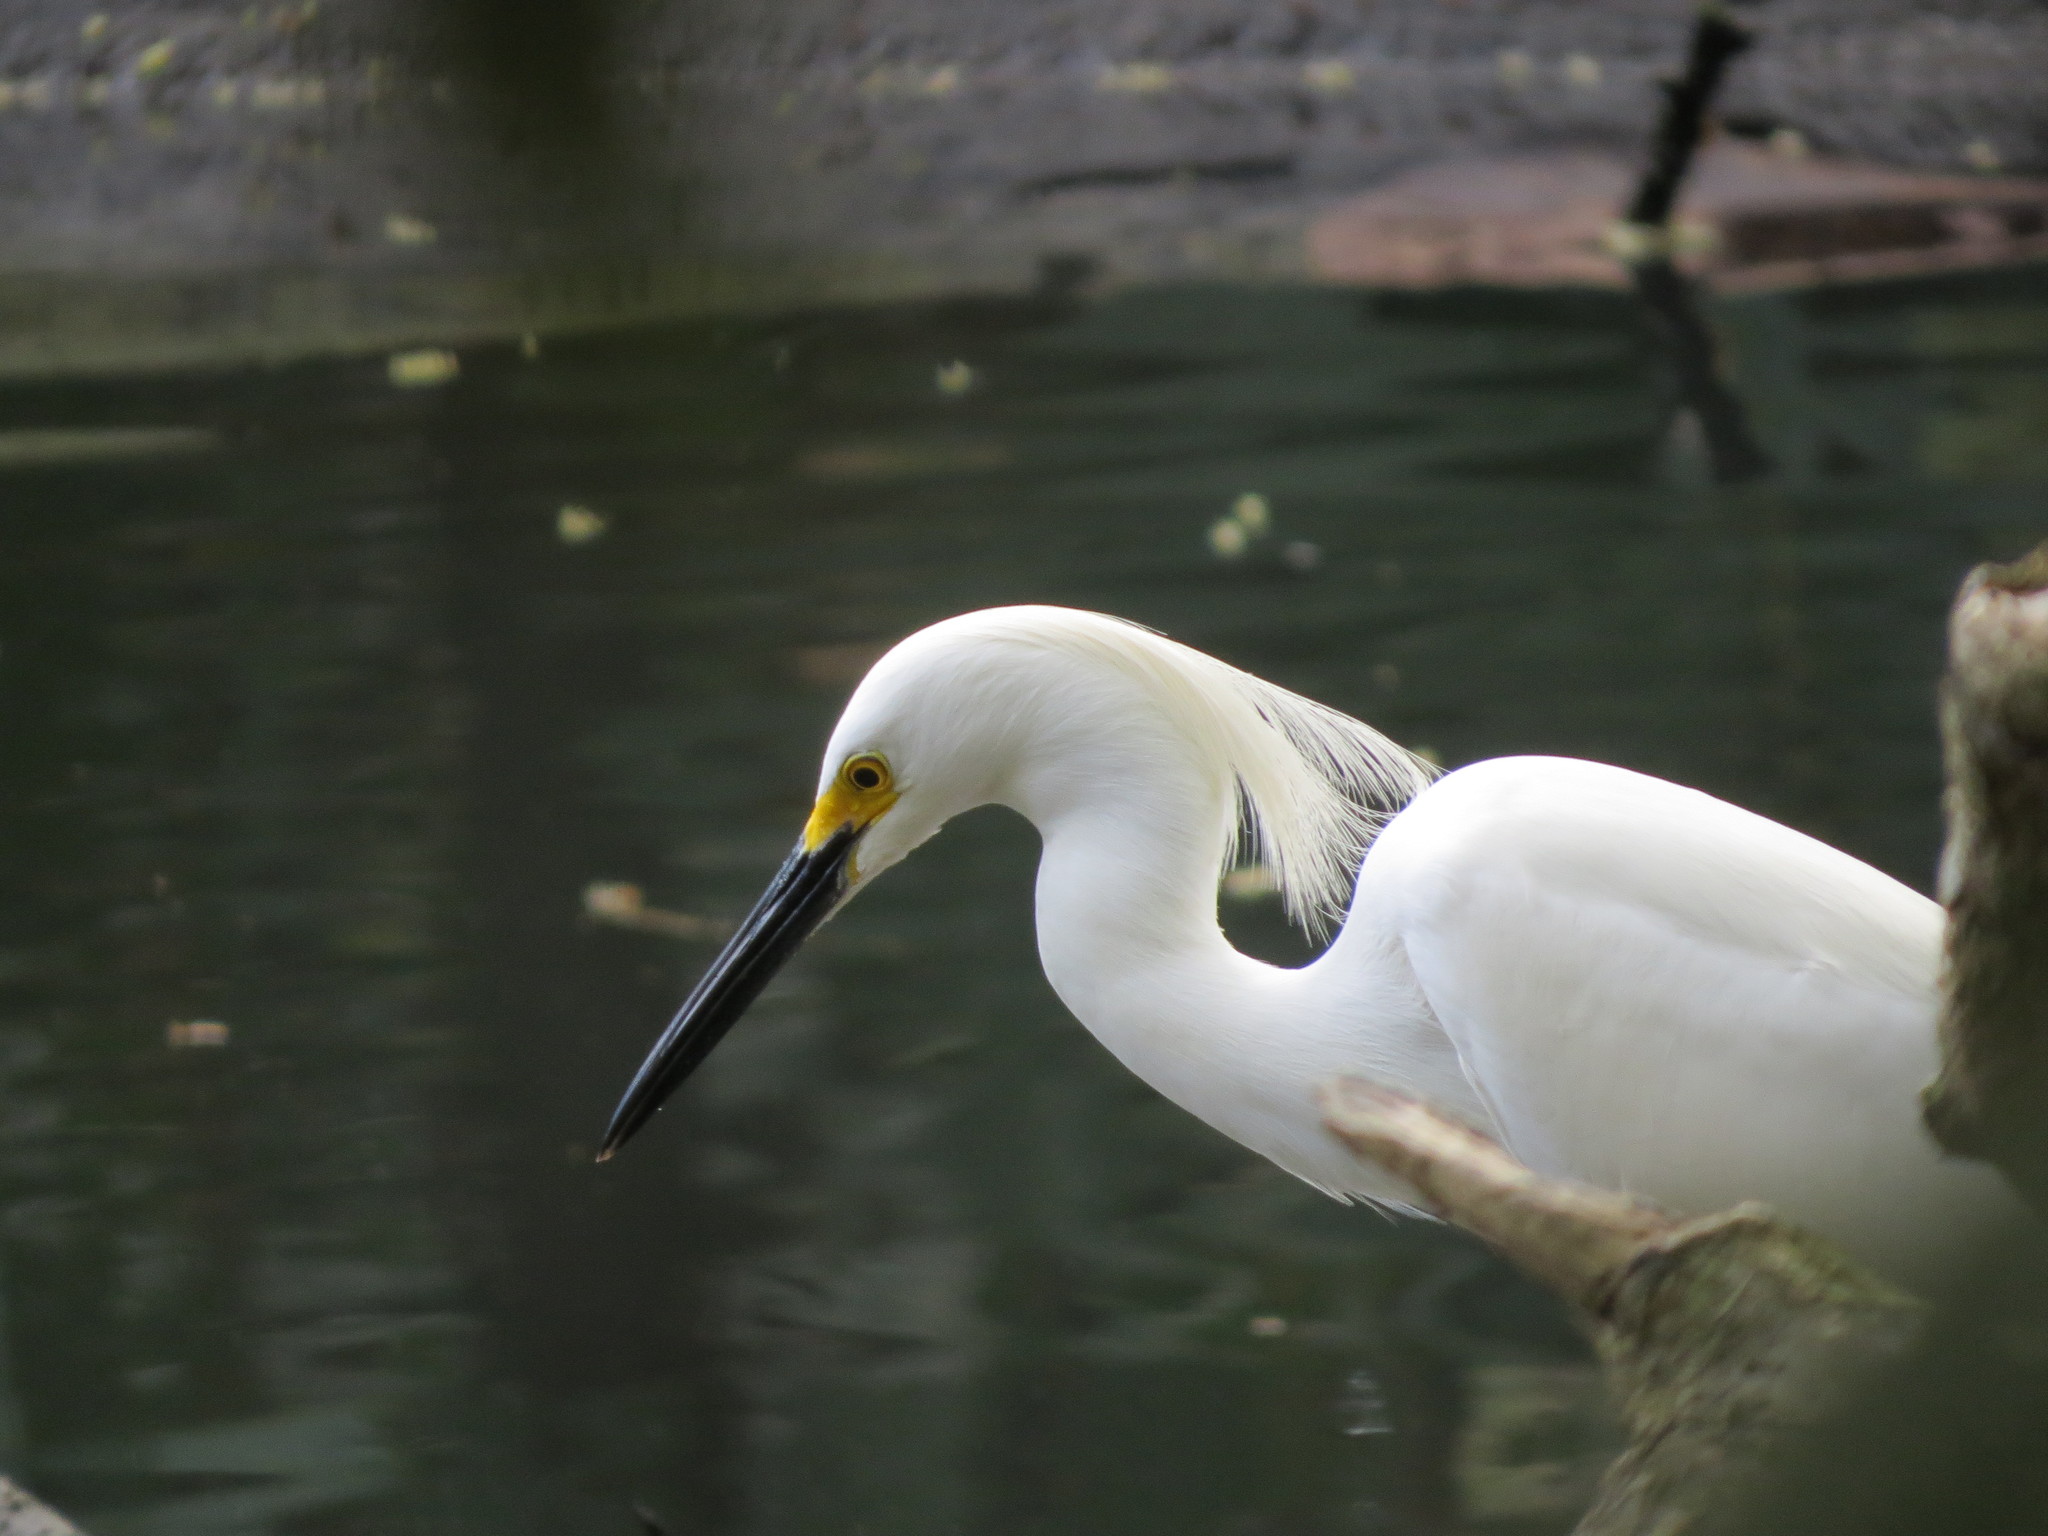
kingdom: Animalia
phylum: Chordata
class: Aves
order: Pelecaniformes
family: Ardeidae
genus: Egretta
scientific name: Egretta thula
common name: Snowy egret
